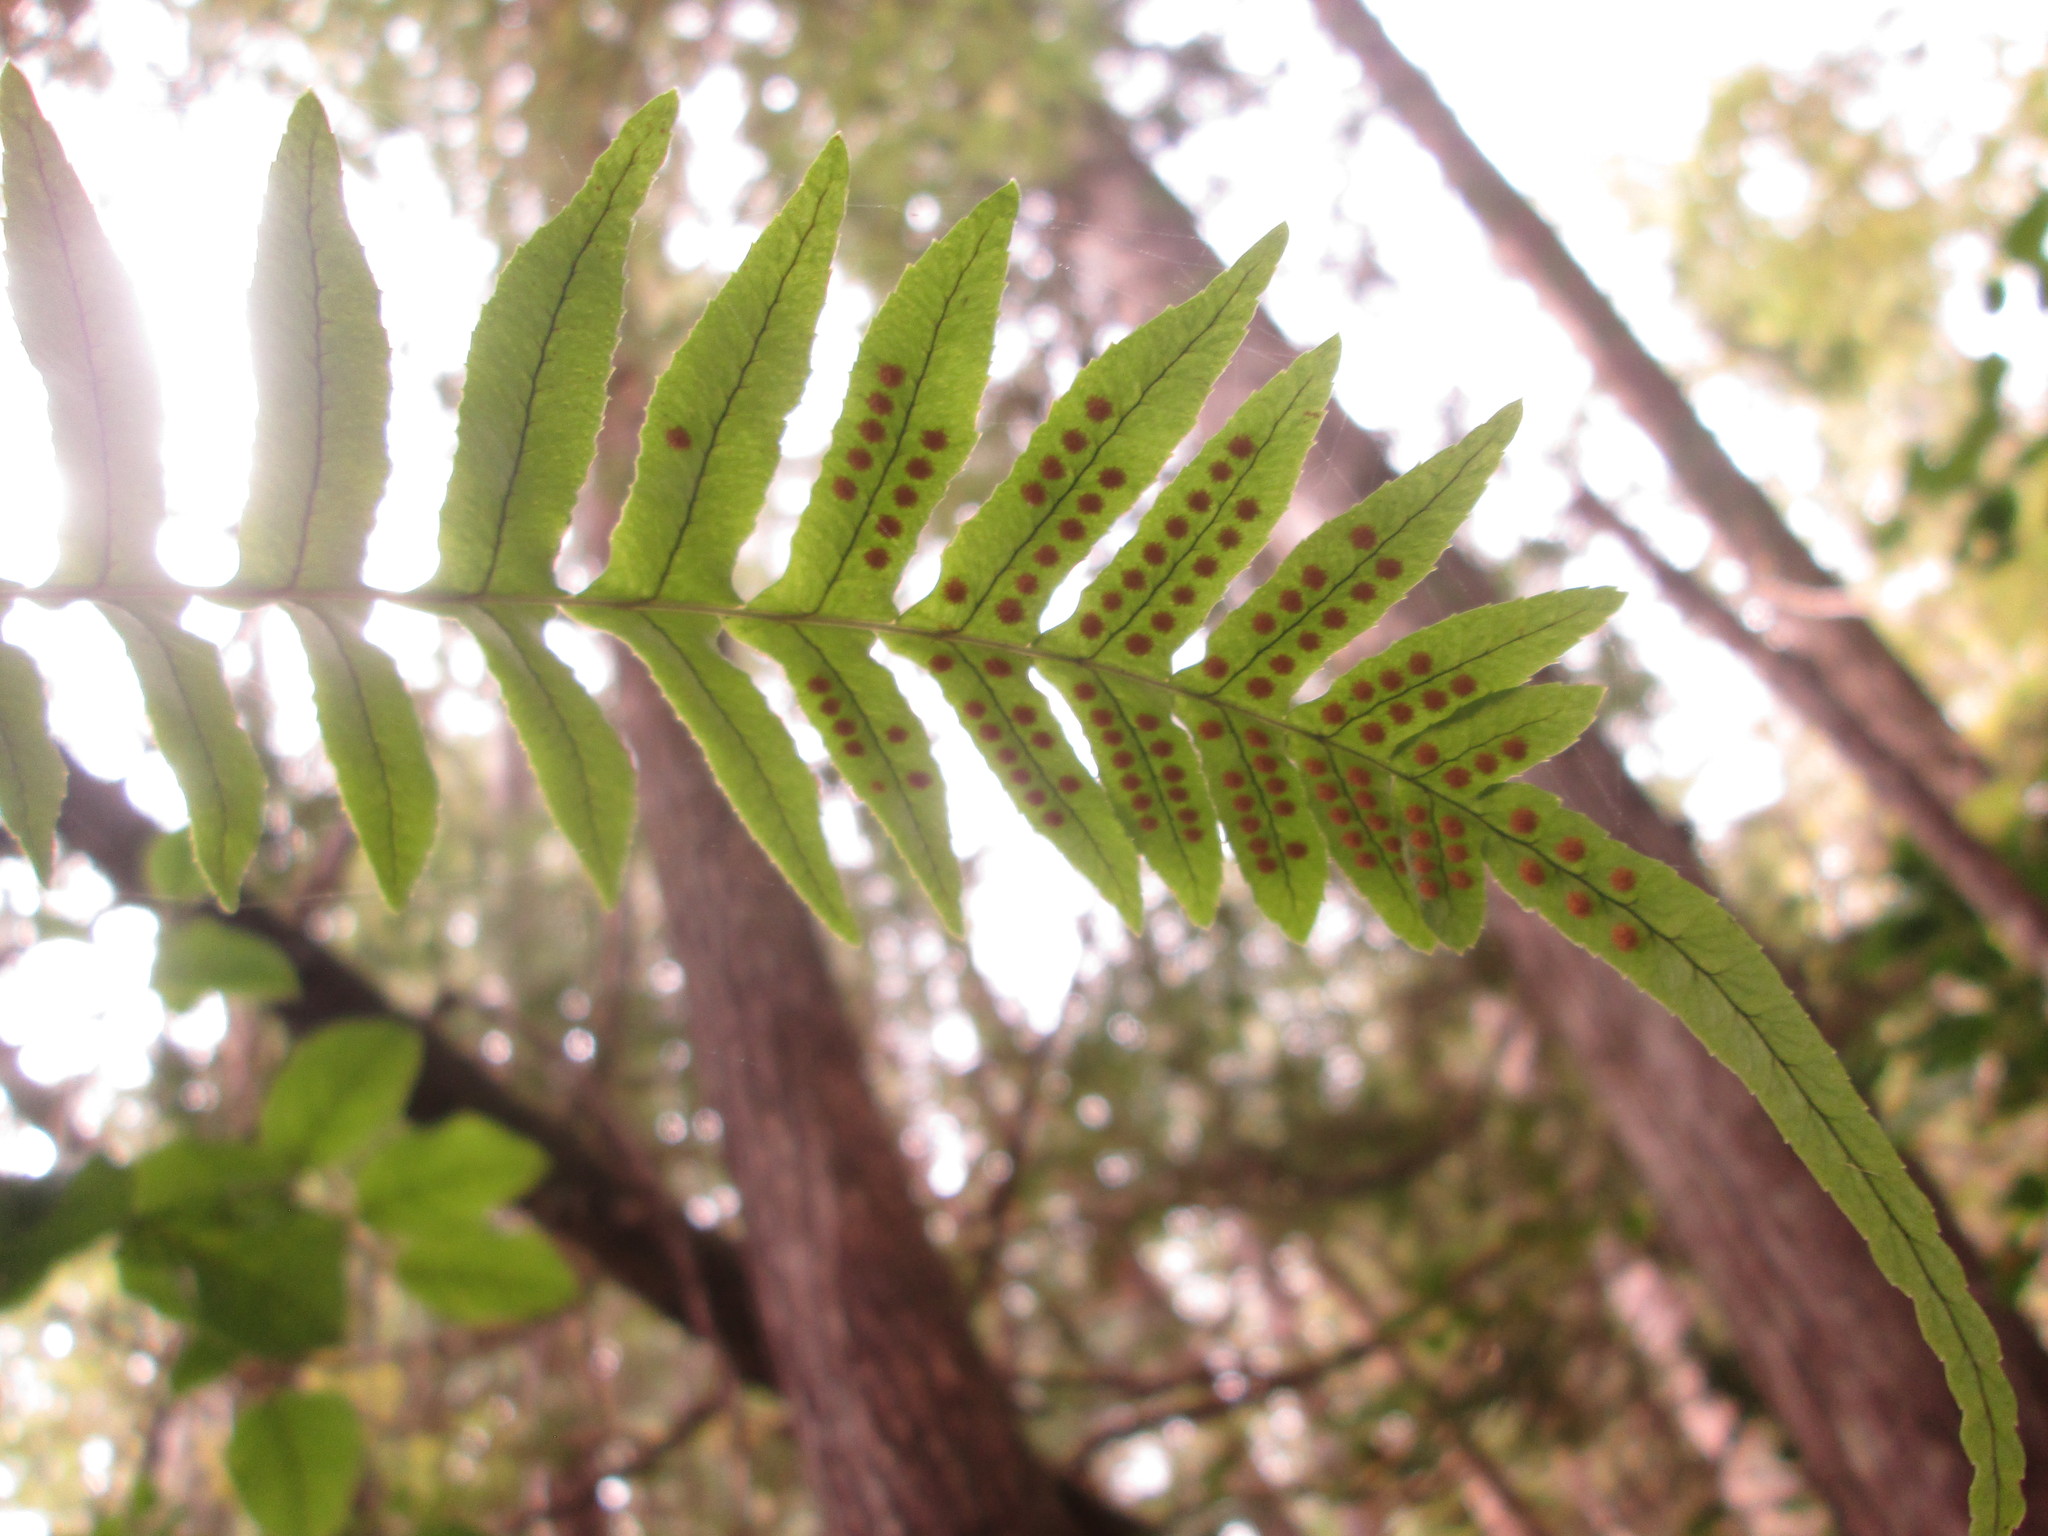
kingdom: Plantae
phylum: Tracheophyta
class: Polypodiopsida
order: Polypodiales
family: Polypodiaceae
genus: Polypodium
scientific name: Polypodium glycyrrhiza
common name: Licorice fern
